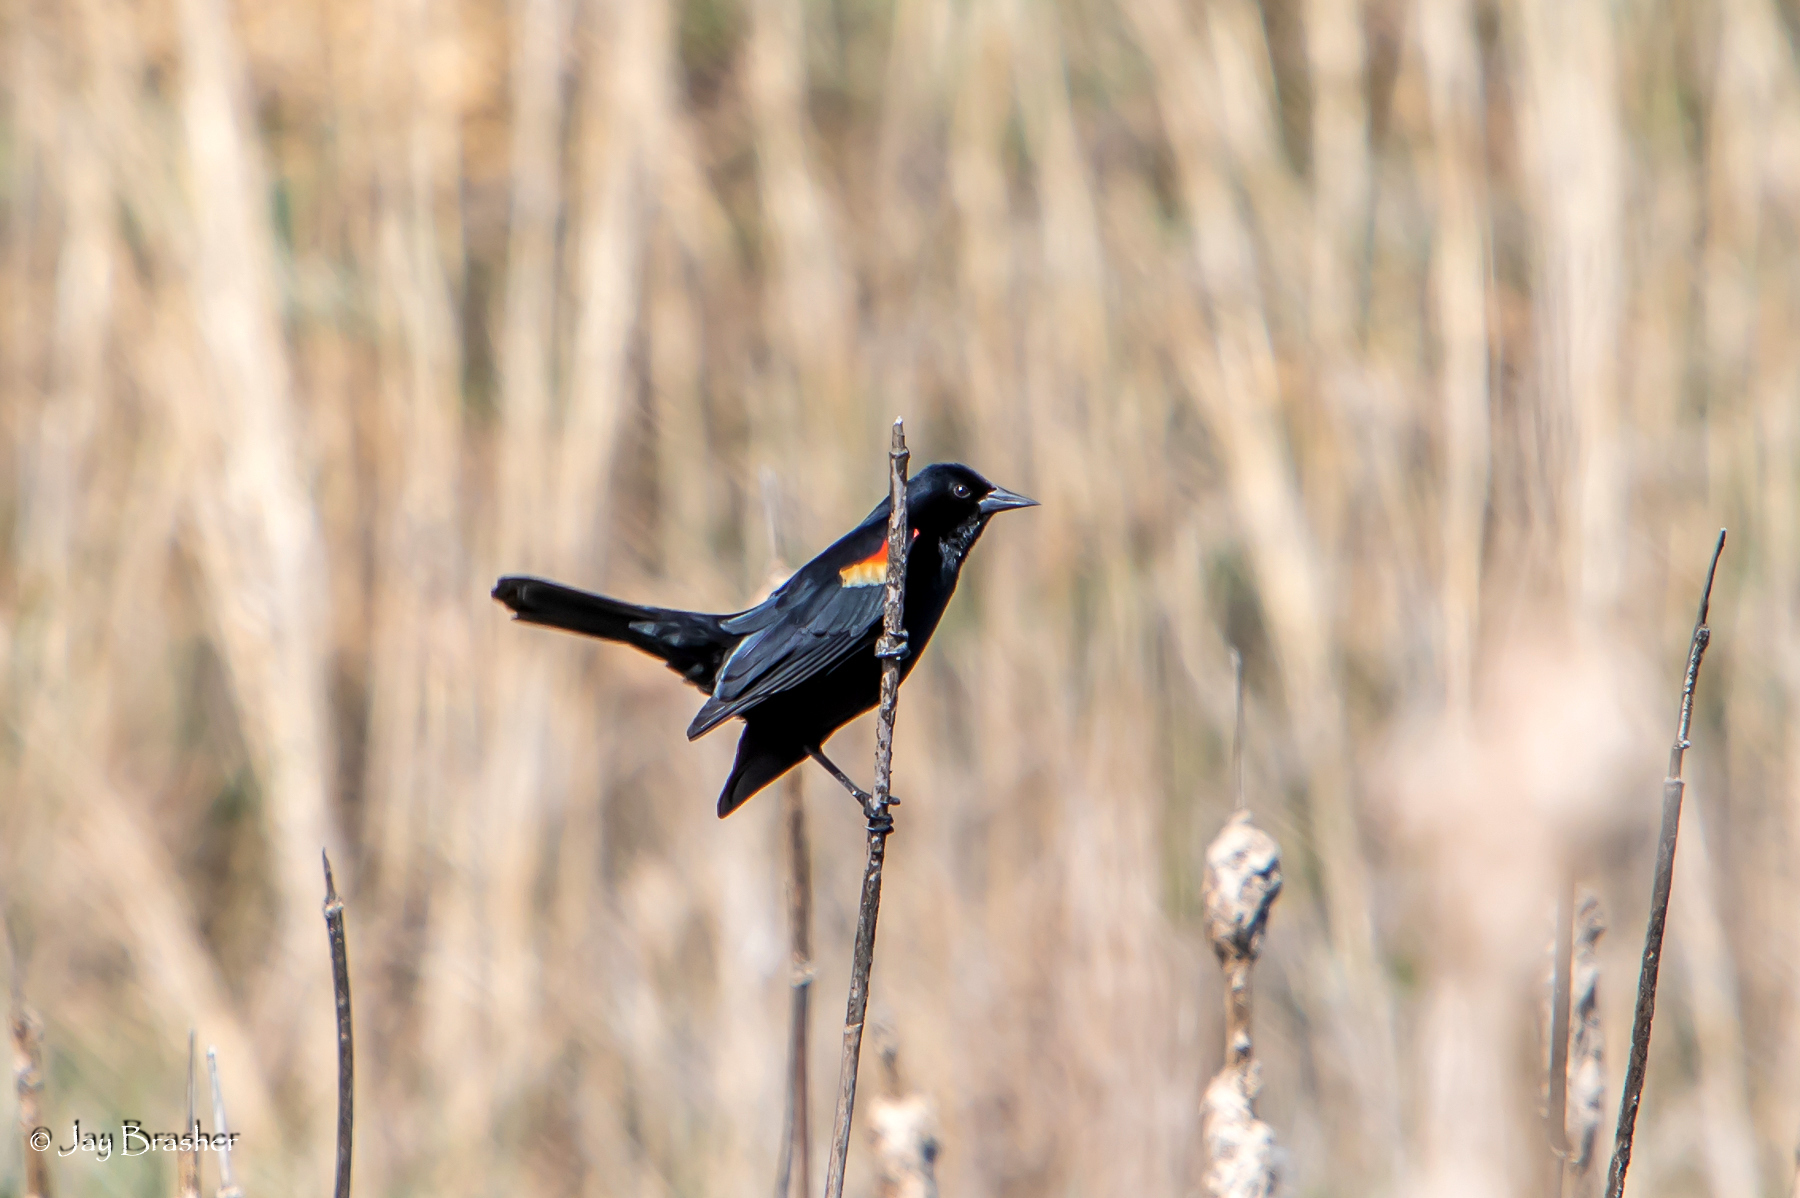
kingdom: Animalia
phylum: Chordata
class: Aves
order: Passeriformes
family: Icteridae
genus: Agelaius
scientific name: Agelaius phoeniceus
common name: Red-winged blackbird
